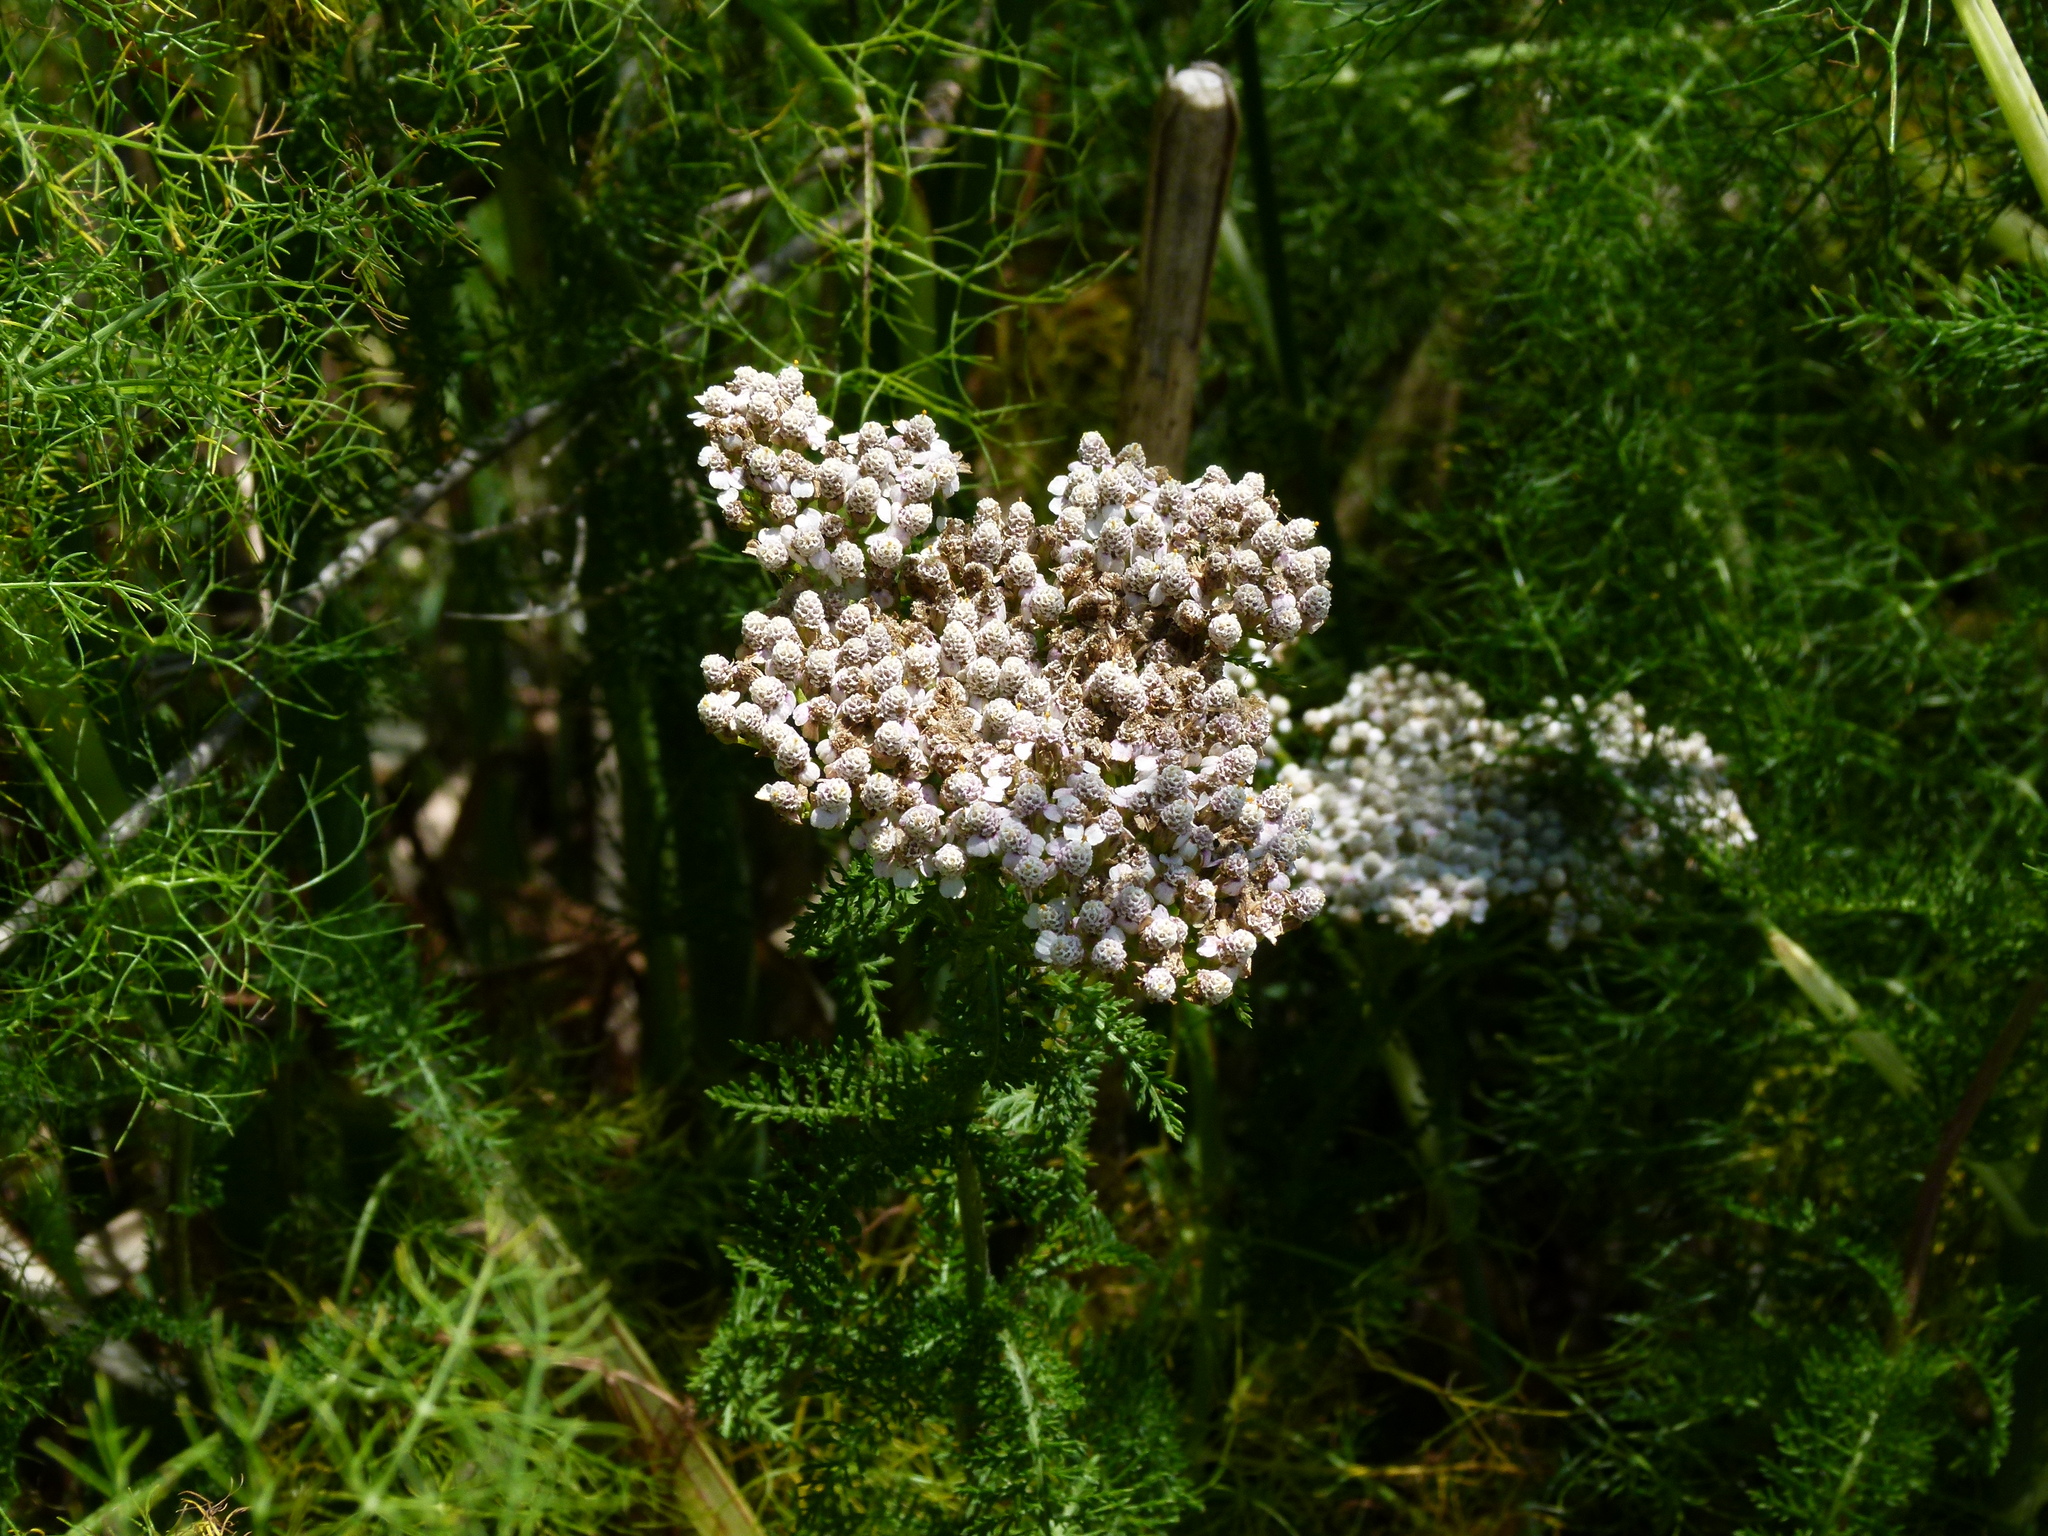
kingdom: Plantae
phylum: Tracheophyta
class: Magnoliopsida
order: Asterales
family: Asteraceae
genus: Achillea
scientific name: Achillea millefolium
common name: Yarrow
